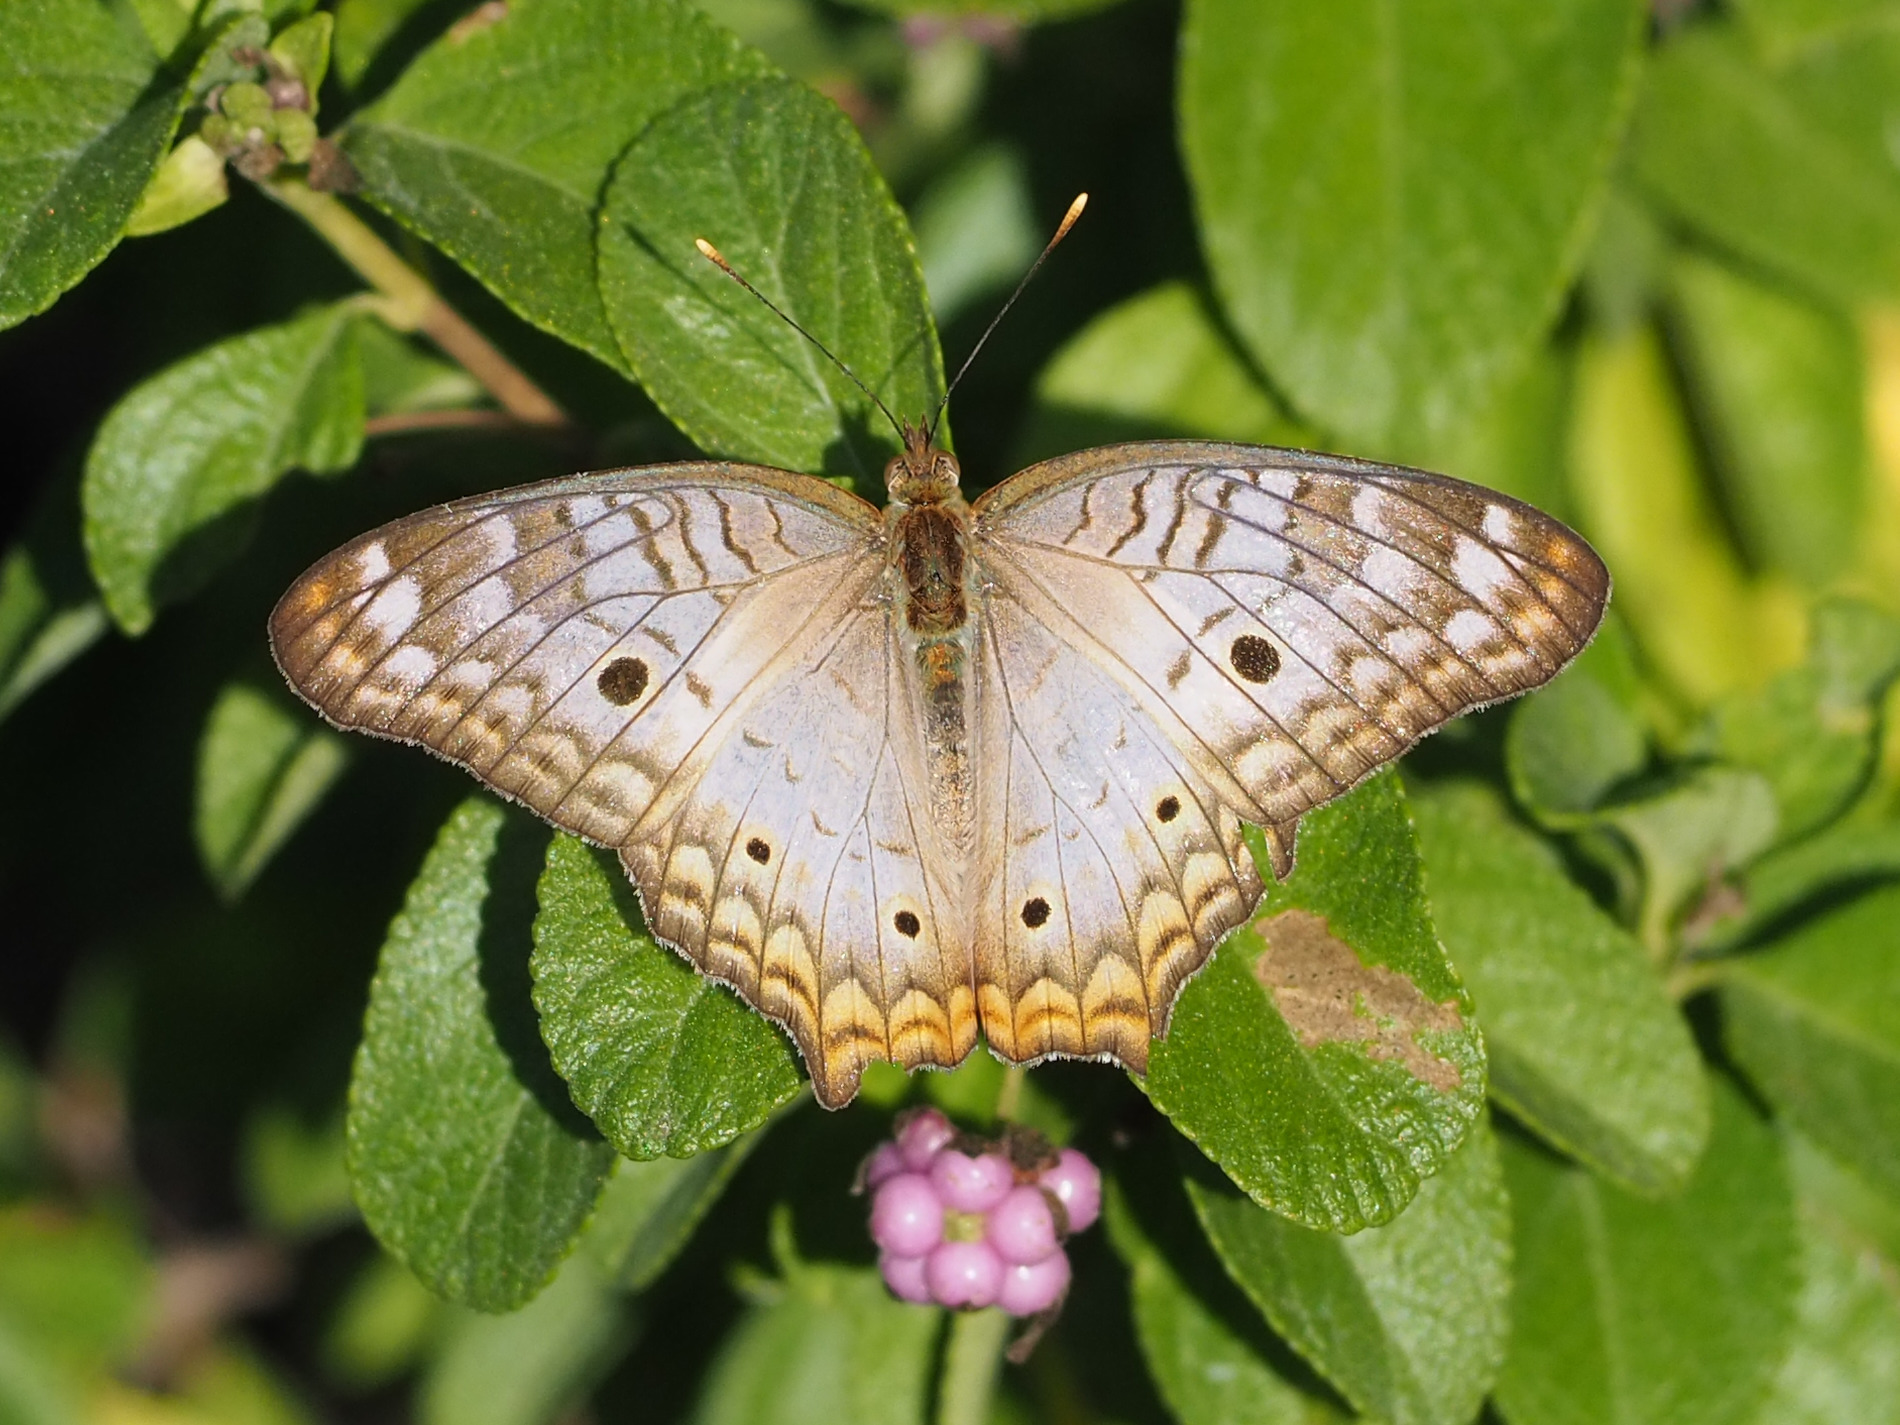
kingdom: Animalia
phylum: Arthropoda
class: Insecta
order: Lepidoptera
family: Nymphalidae
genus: Anartia
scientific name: Anartia jatrophae
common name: White peacock
